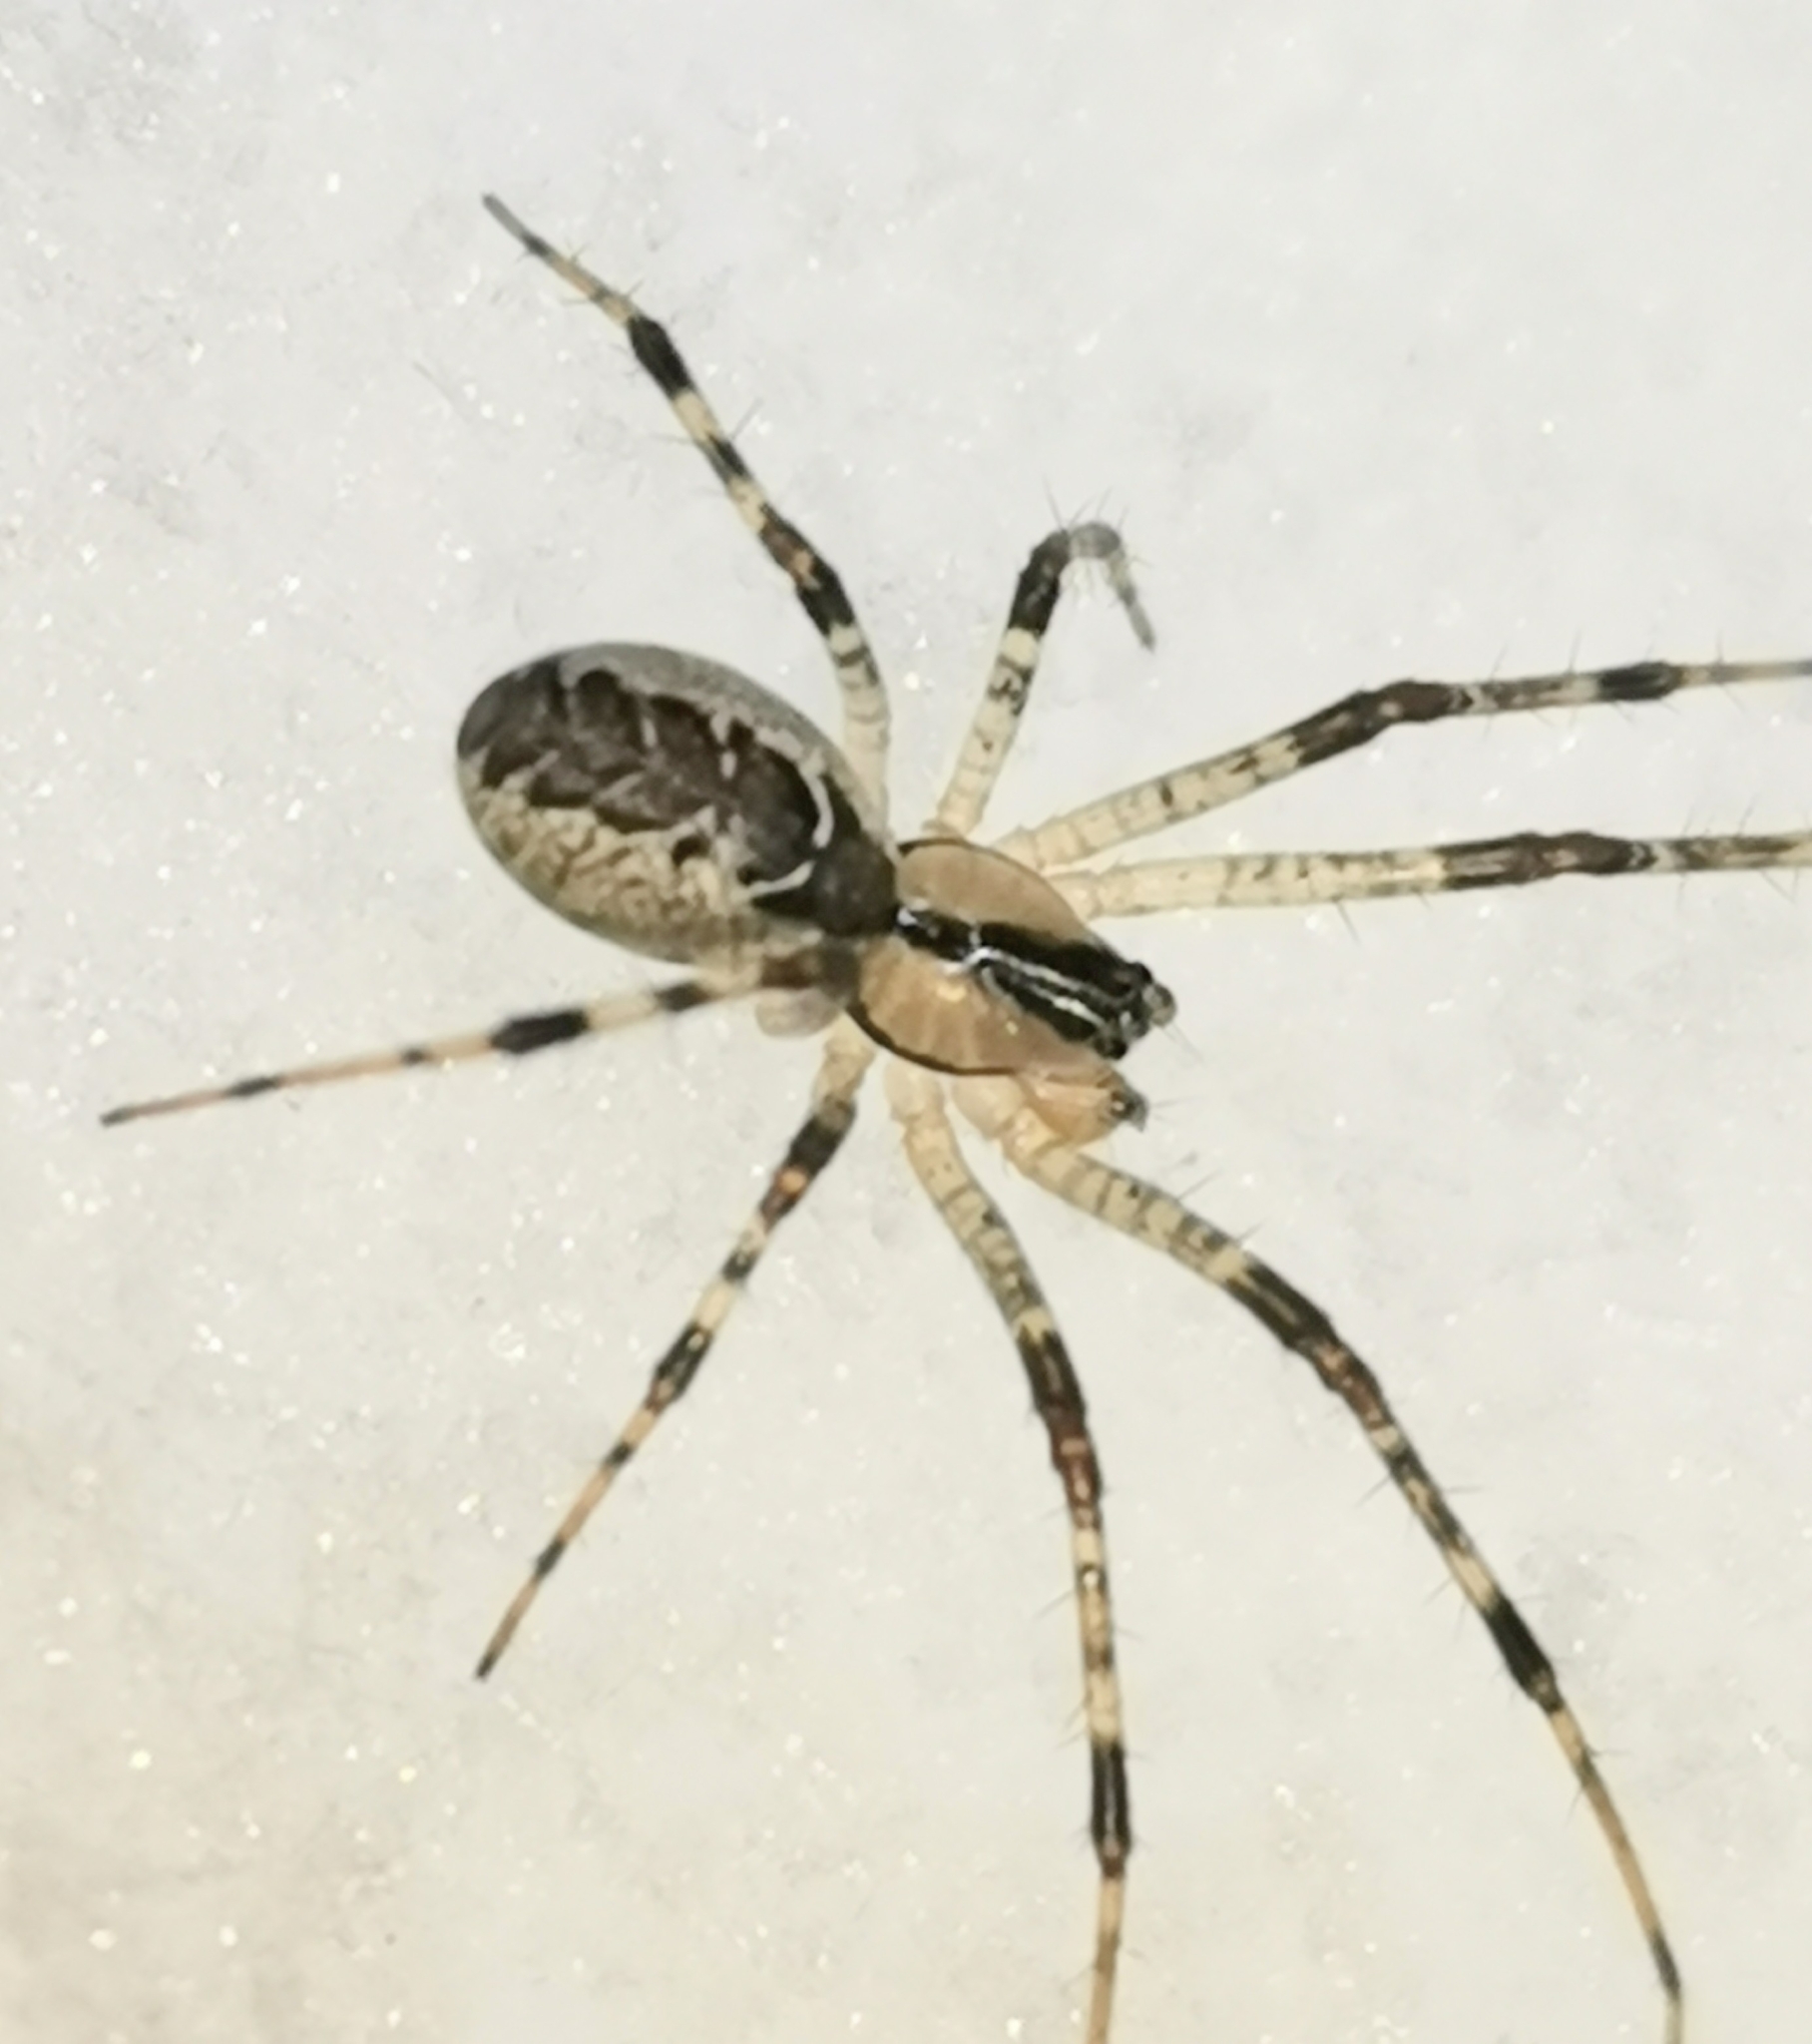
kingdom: Animalia
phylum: Arthropoda
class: Arachnida
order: Araneae
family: Linyphiidae
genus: Pityohyphantes
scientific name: Pityohyphantes phrygianus
